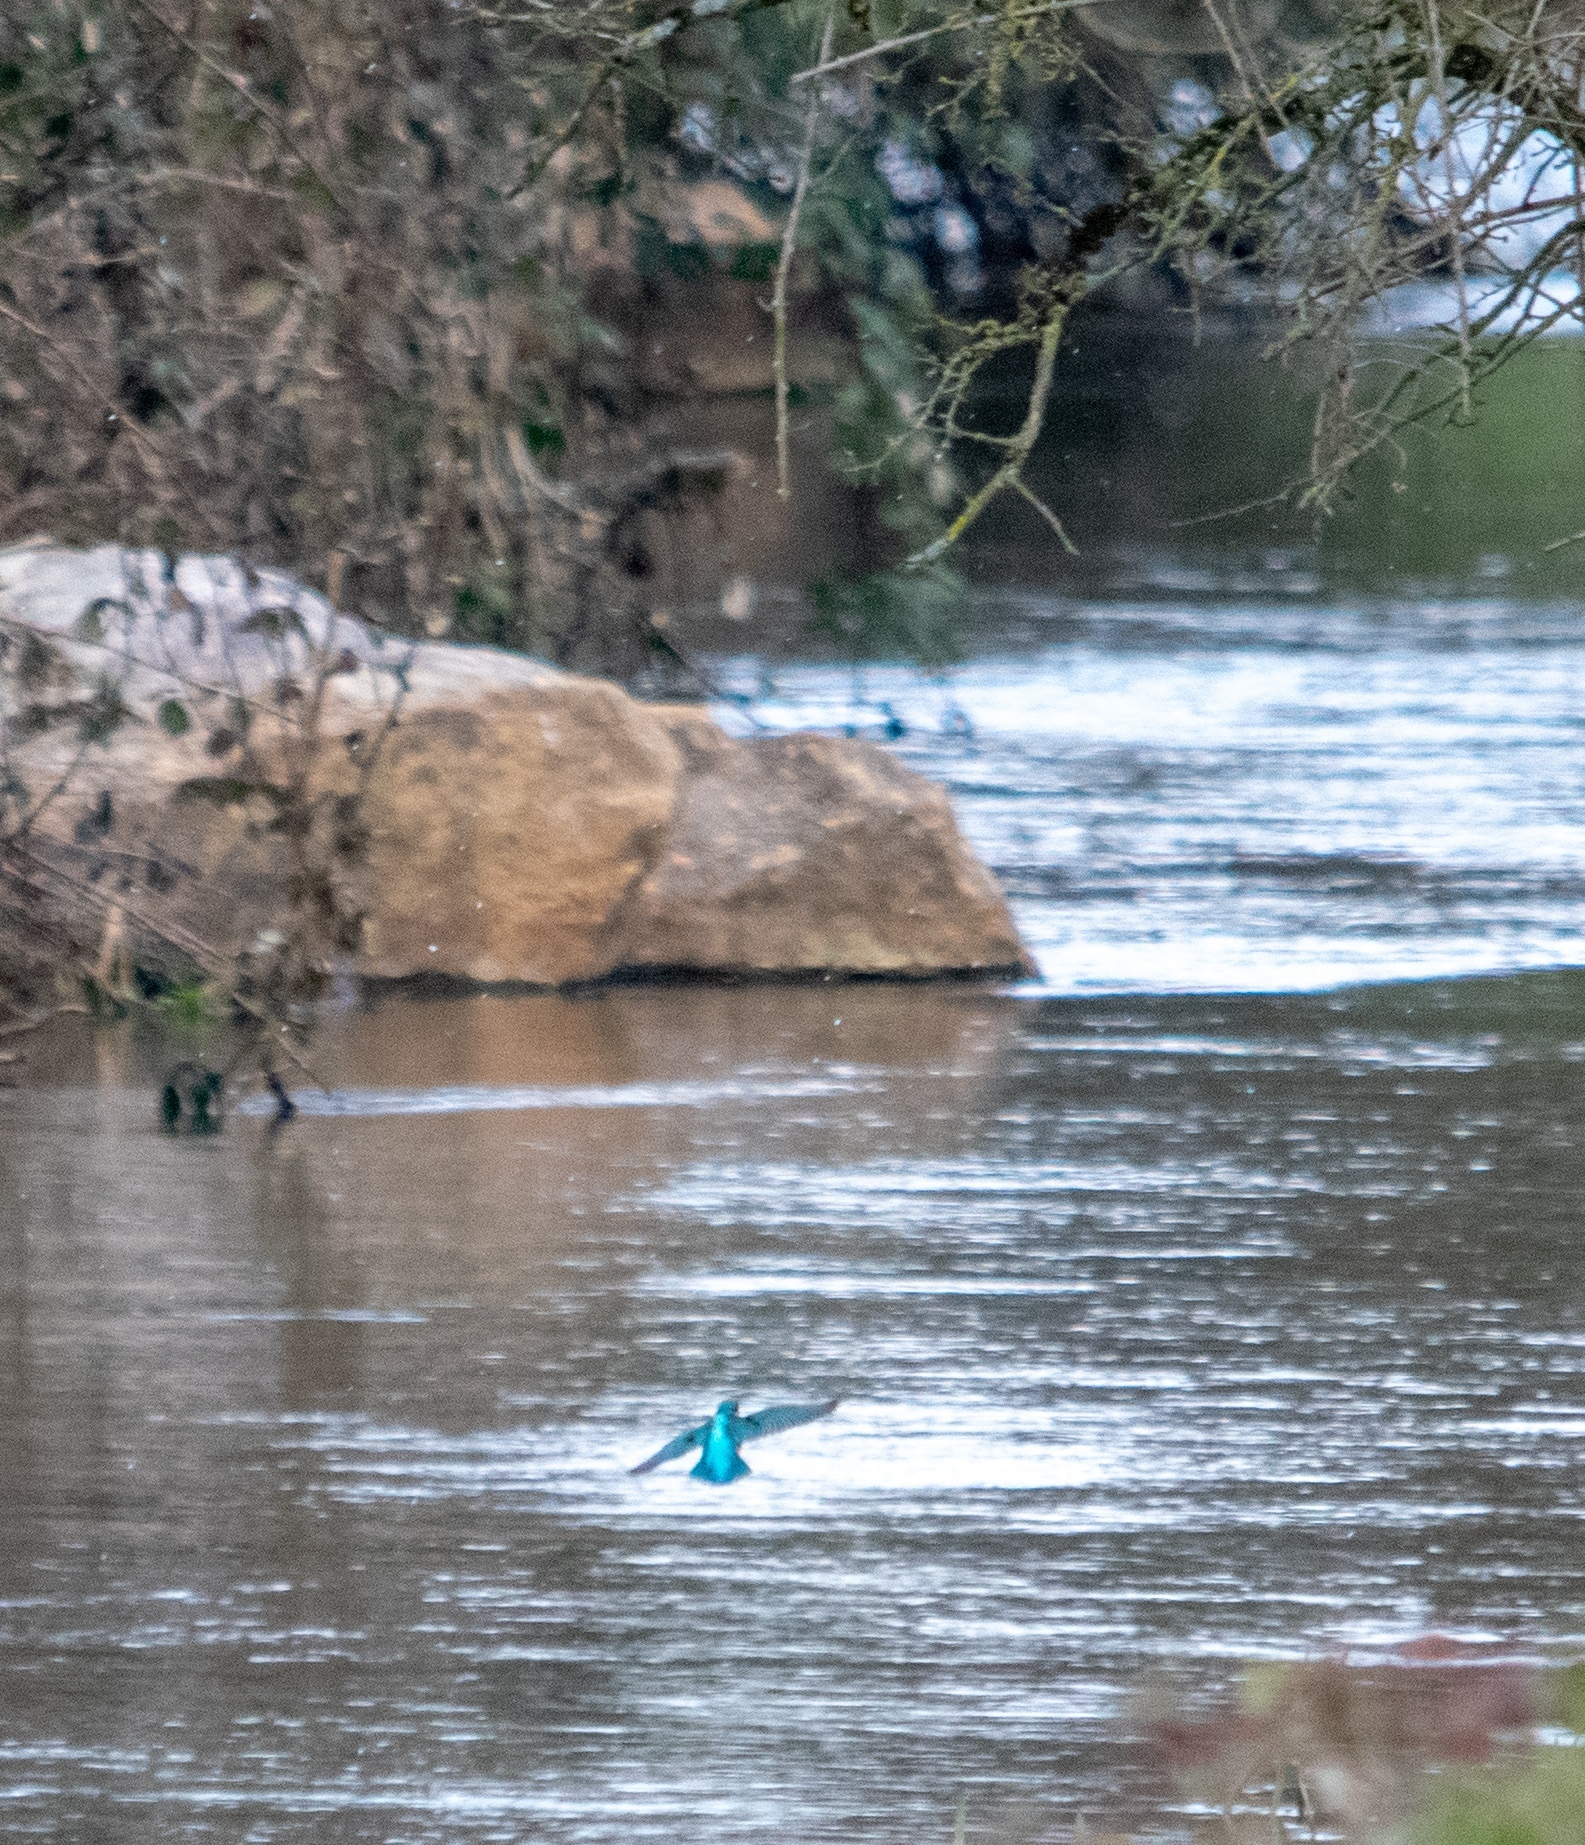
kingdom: Animalia
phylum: Chordata
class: Aves
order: Coraciiformes
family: Alcedinidae
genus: Alcedo
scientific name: Alcedo atthis
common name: Common kingfisher
